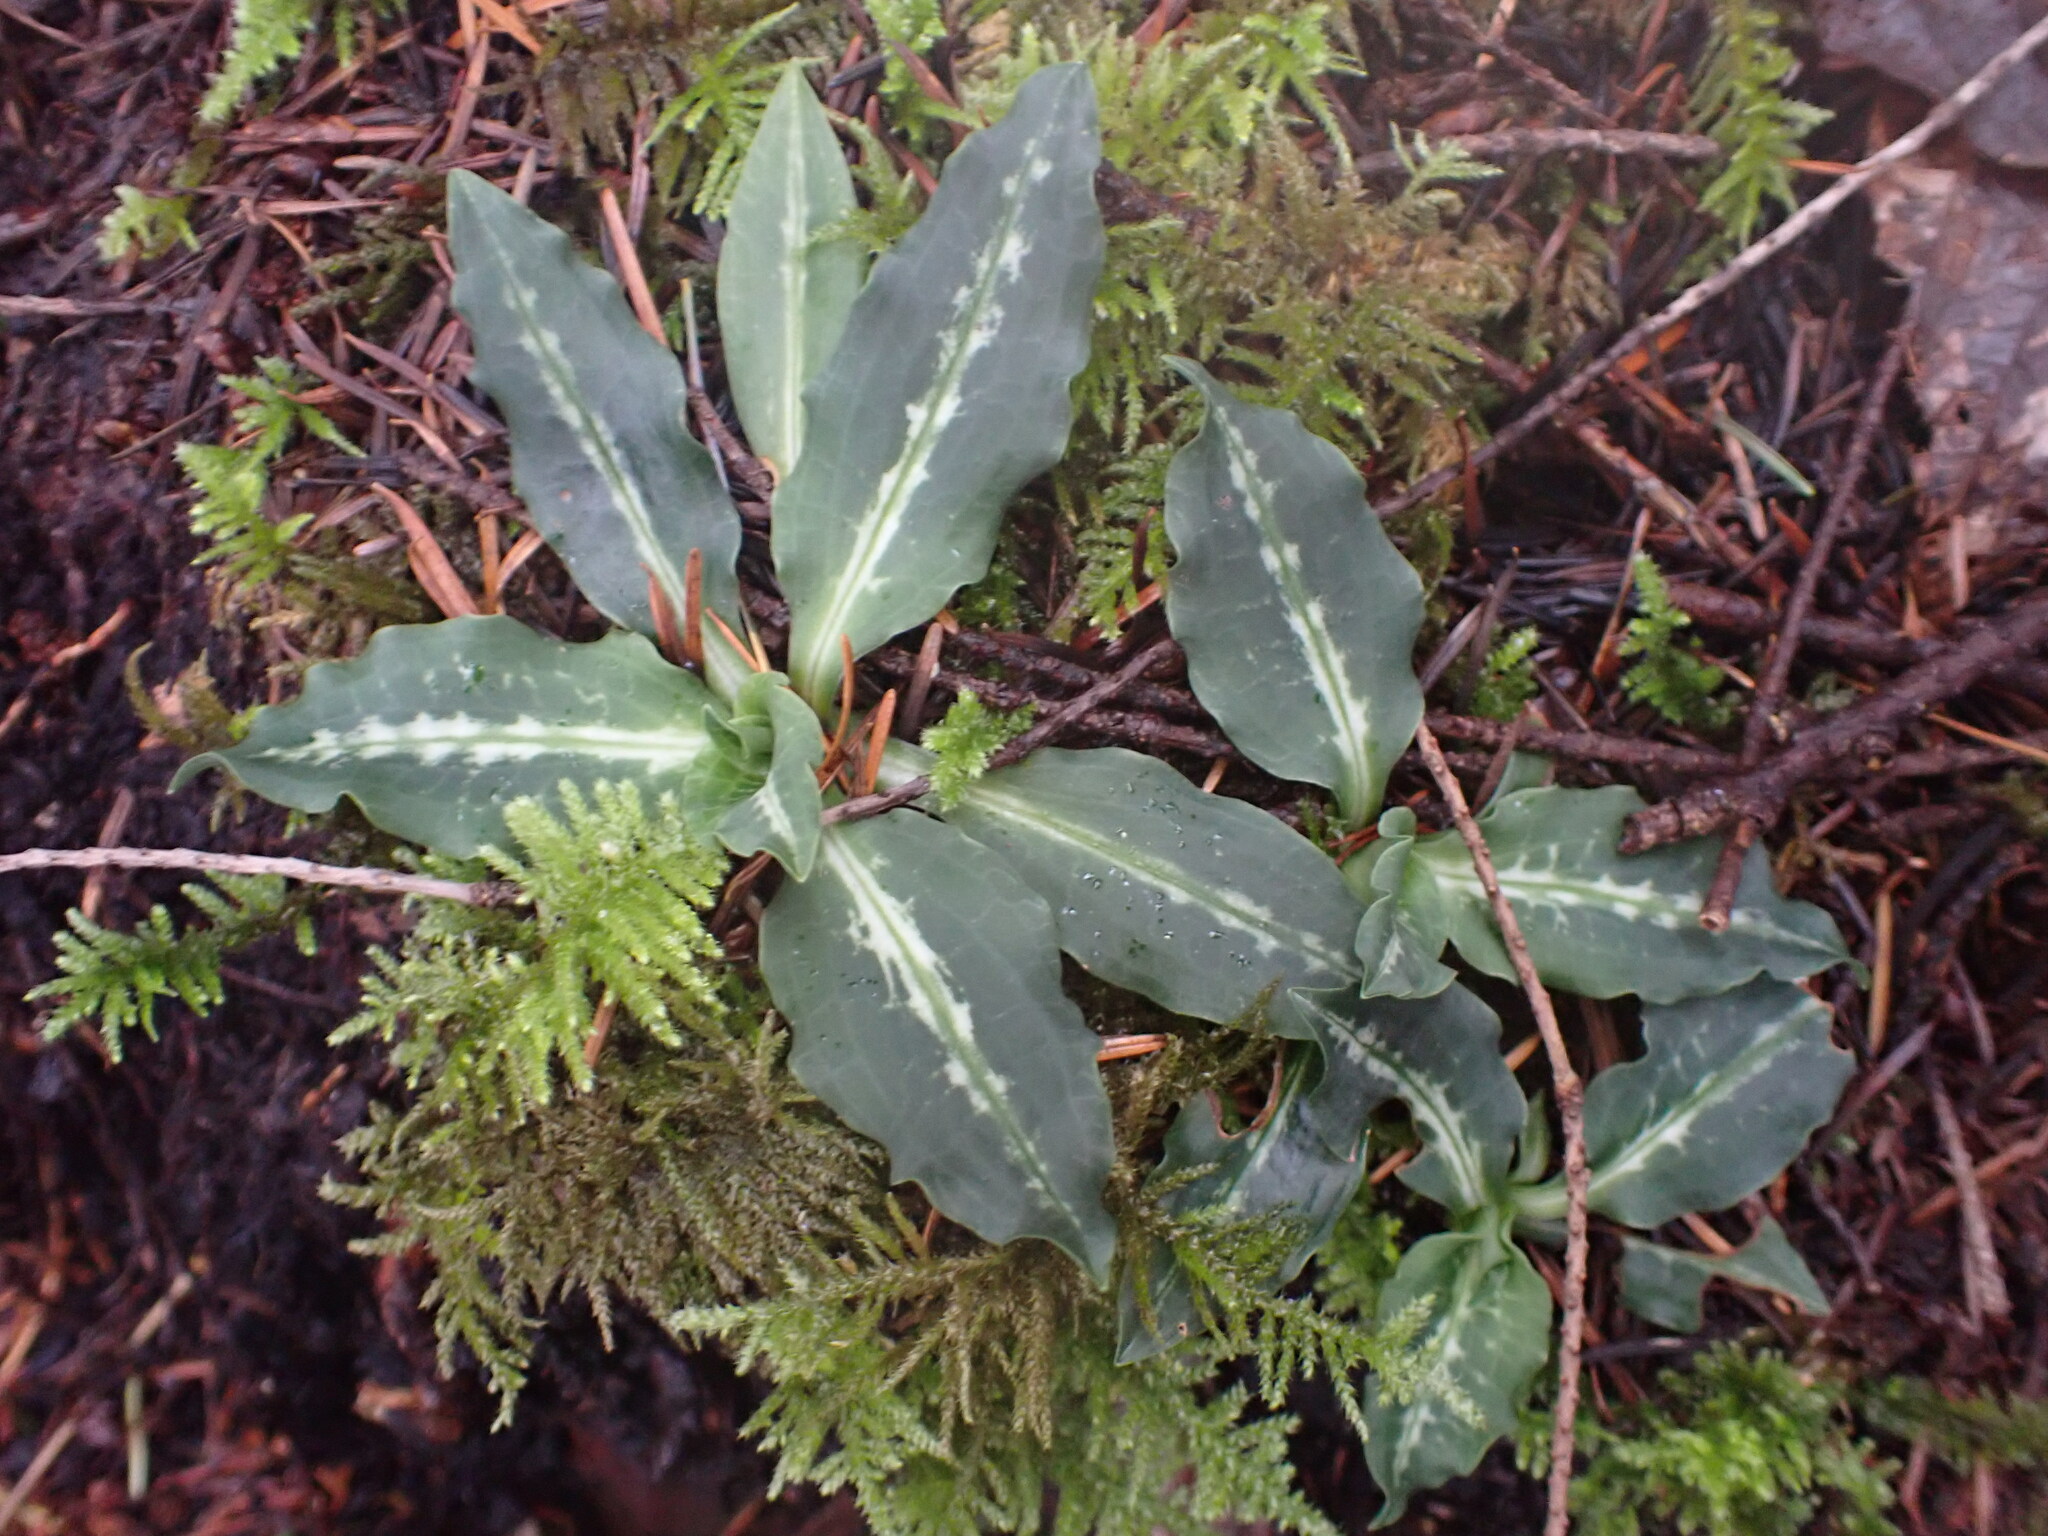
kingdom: Plantae
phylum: Tracheophyta
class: Liliopsida
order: Asparagales
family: Orchidaceae
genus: Goodyera
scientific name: Goodyera oblongifolia
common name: Giant rattlesnake-plantain
